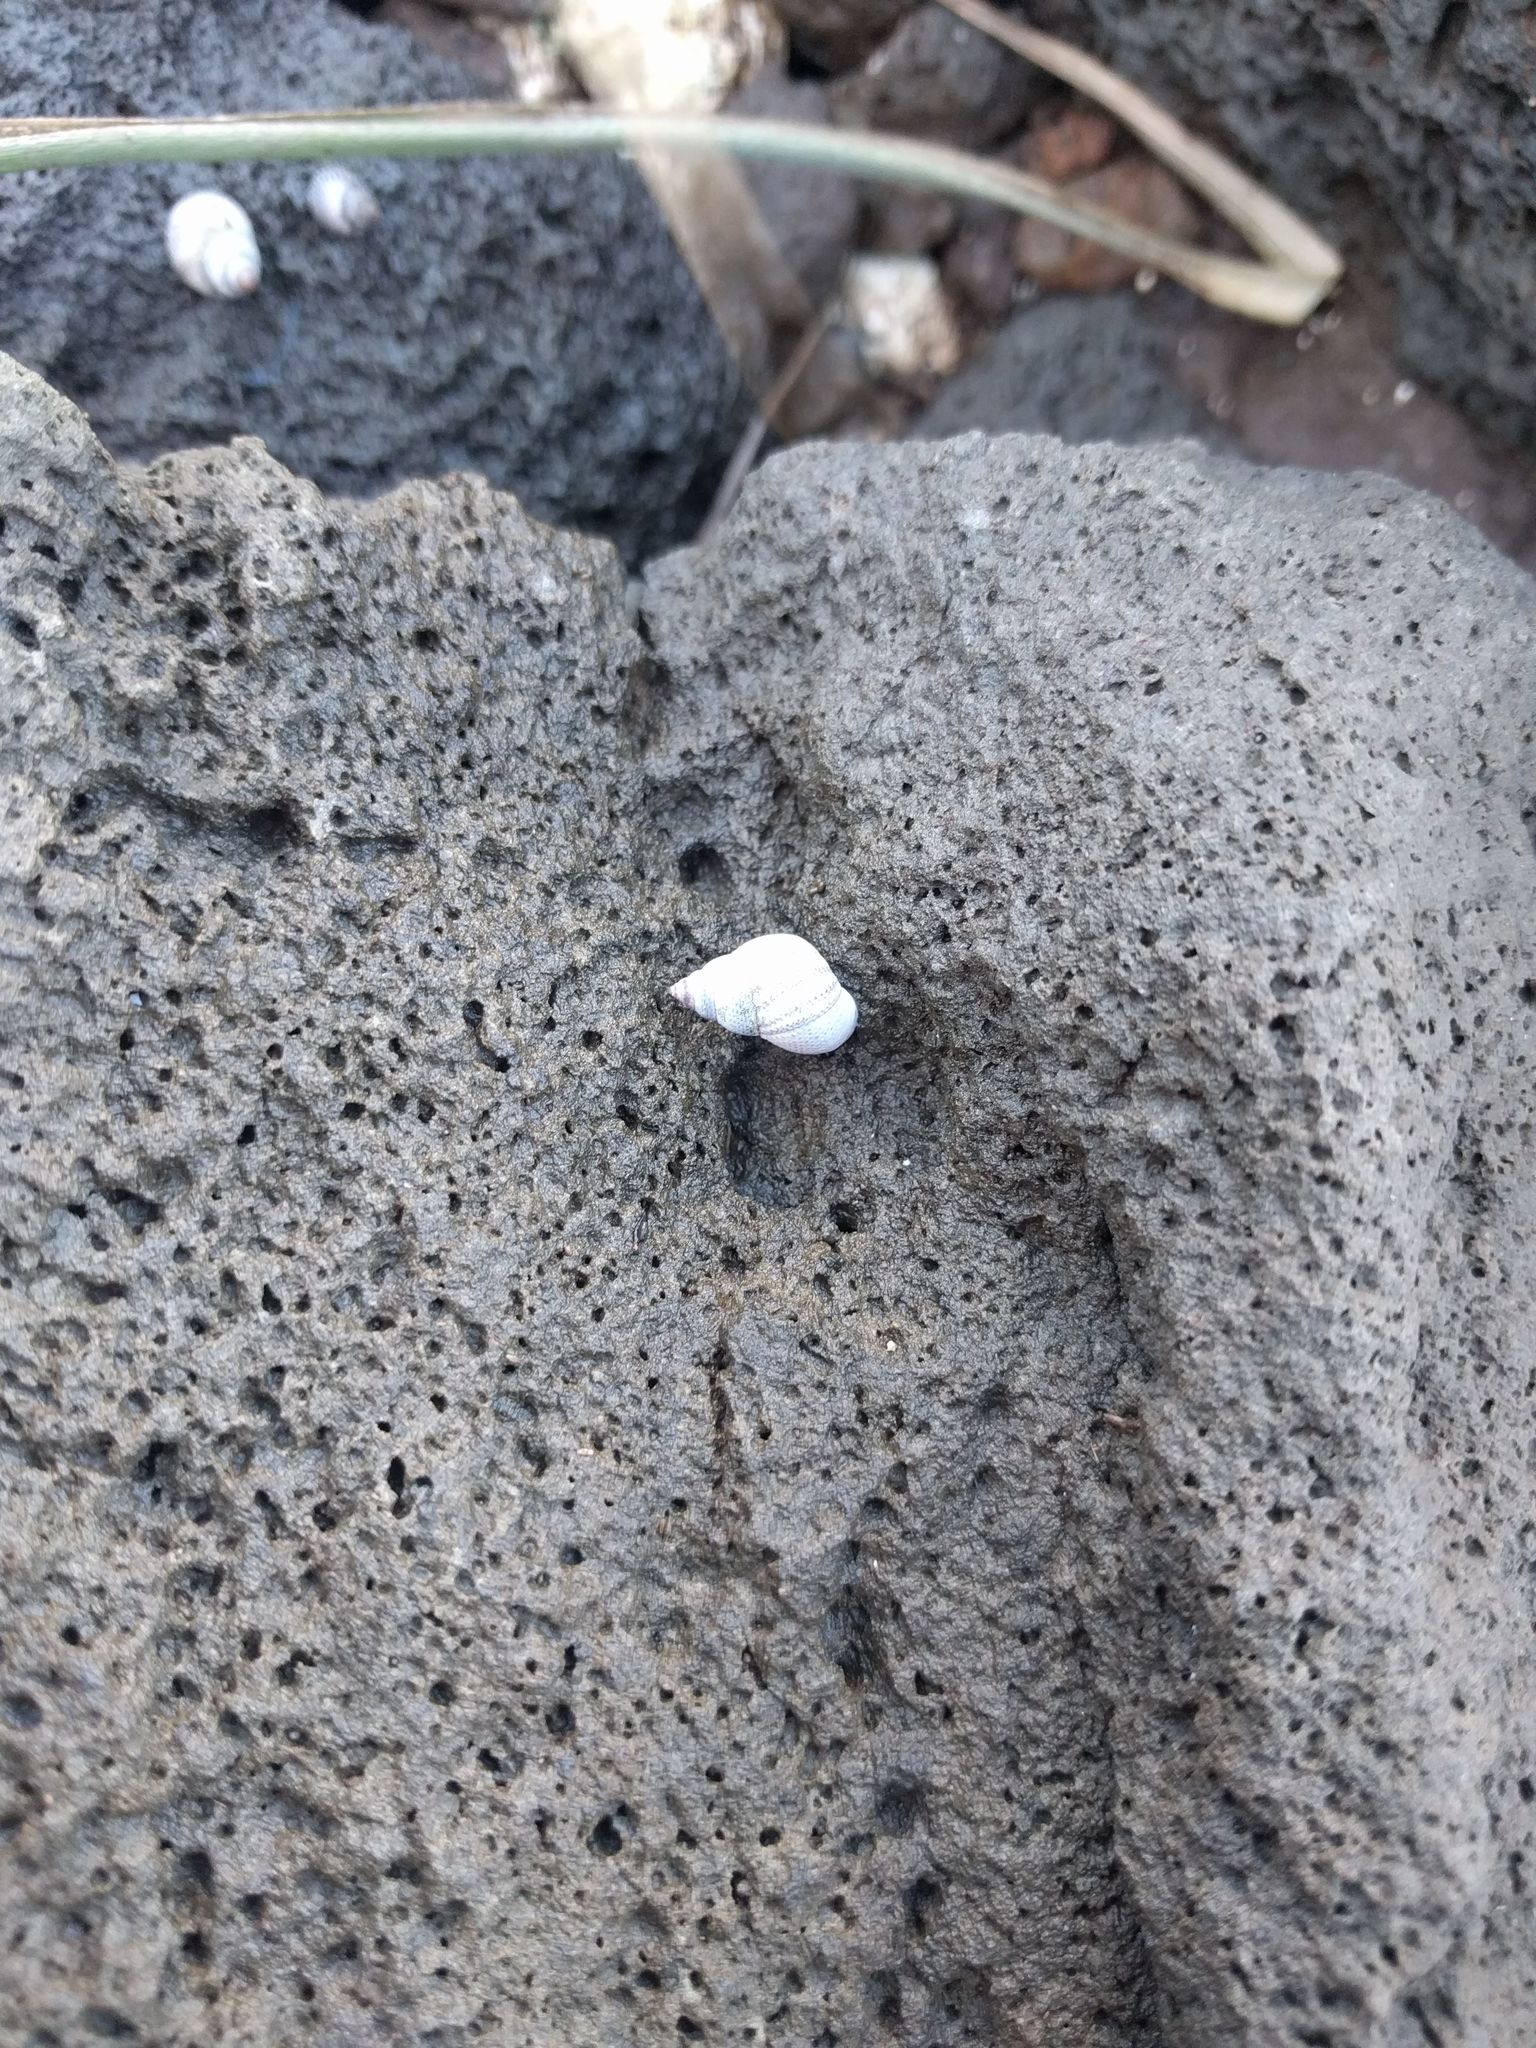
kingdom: Animalia
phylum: Mollusca
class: Gastropoda
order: Littorinimorpha
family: Littorinidae
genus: Littoraria
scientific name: Littoraria pintado
